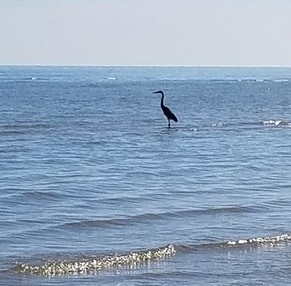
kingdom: Animalia
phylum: Chordata
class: Aves
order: Pelecaniformes
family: Ardeidae
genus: Ardea
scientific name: Ardea herodias
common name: Great blue heron
